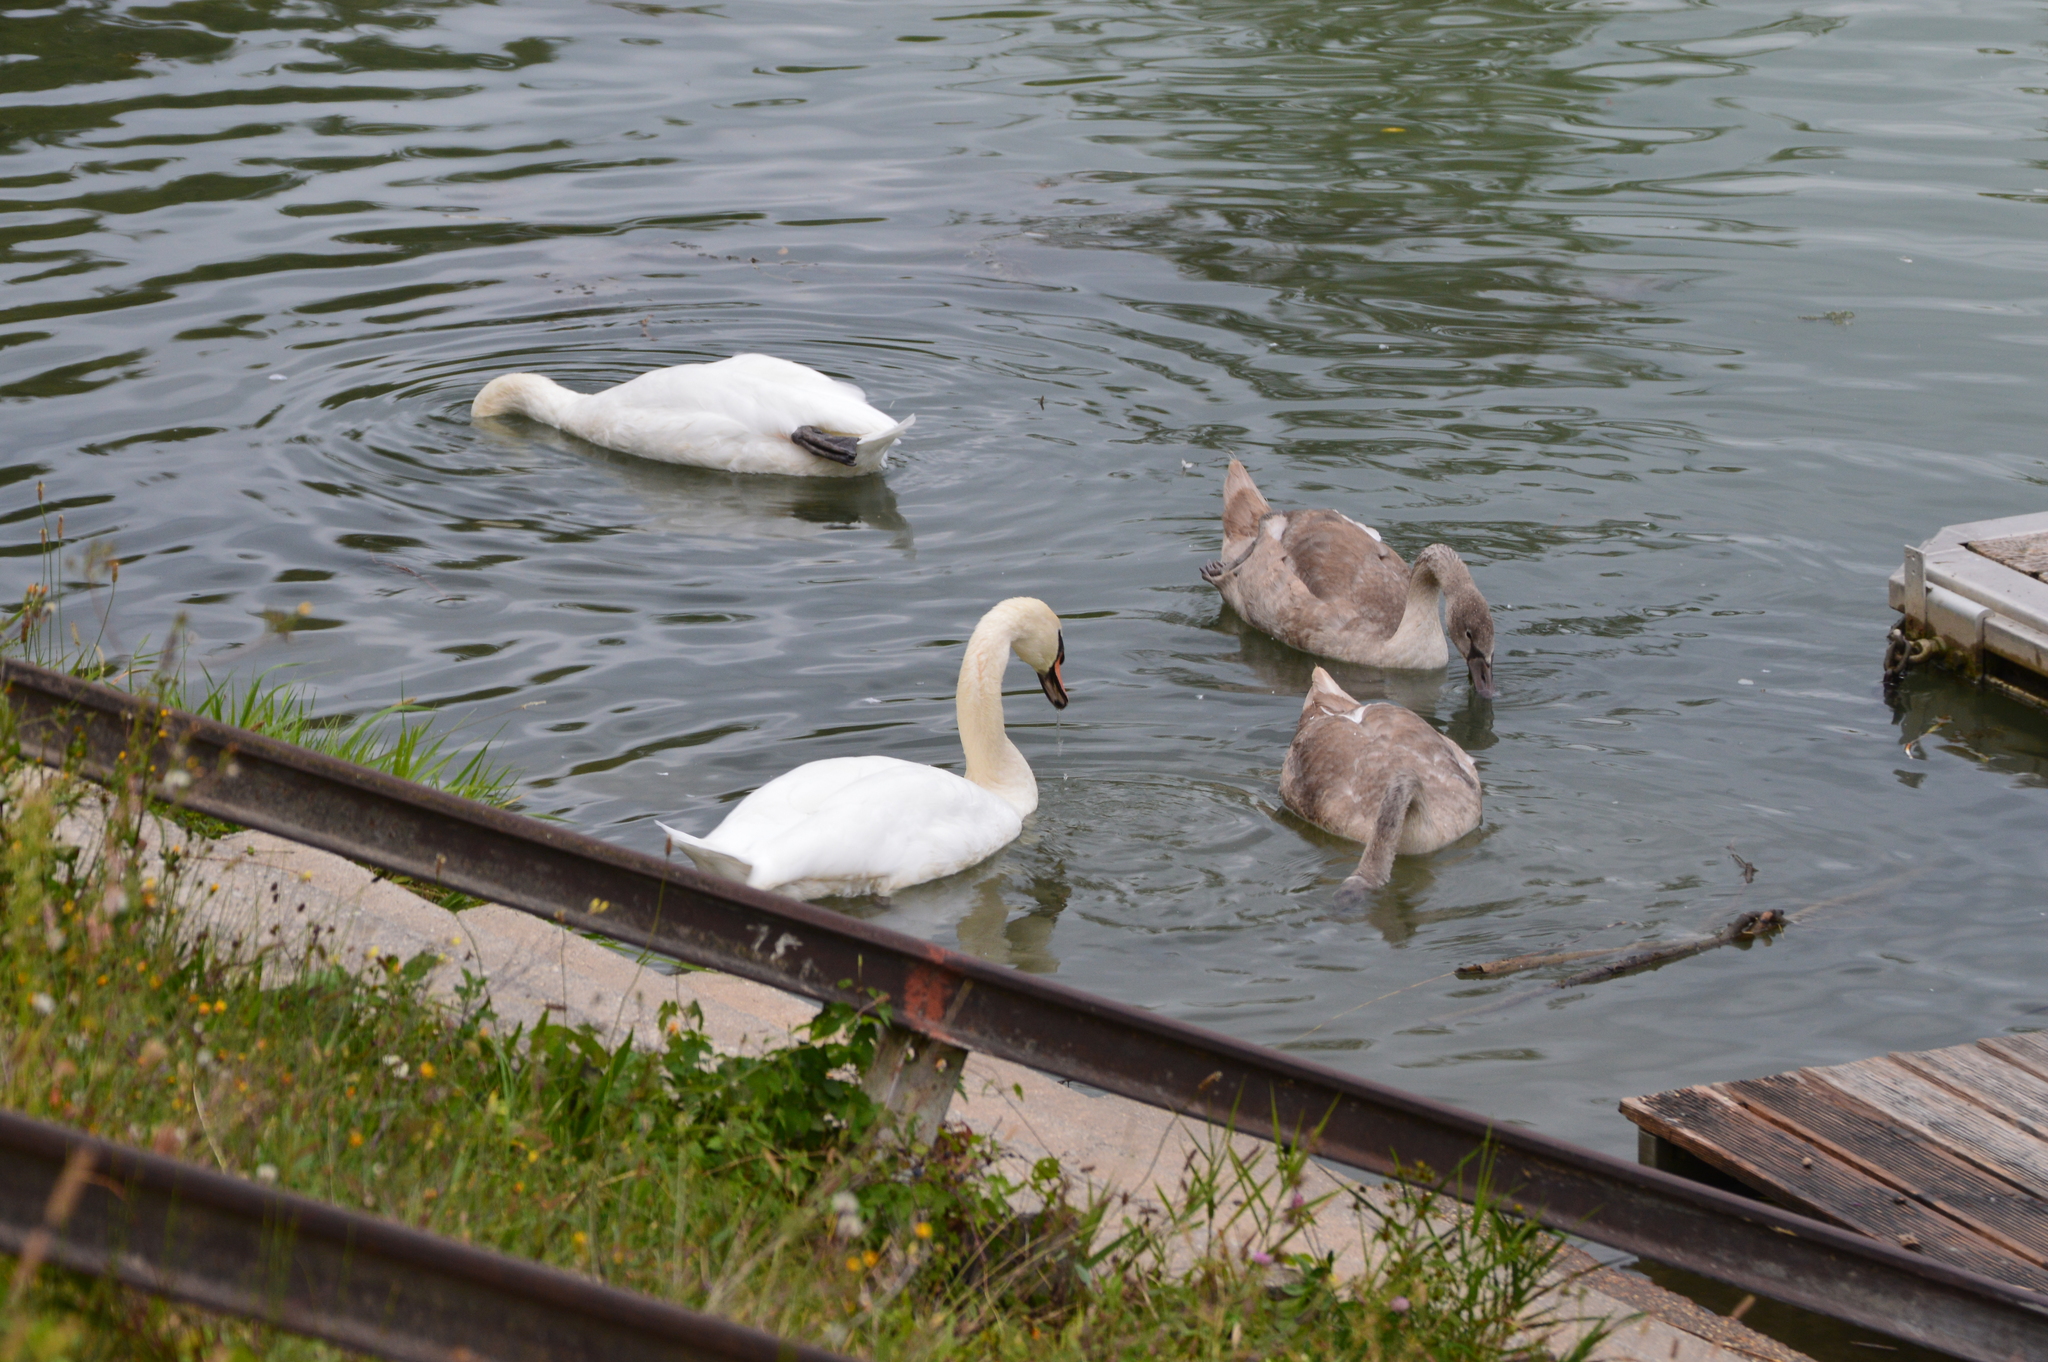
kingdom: Animalia
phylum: Chordata
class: Aves
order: Anseriformes
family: Anatidae
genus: Cygnus
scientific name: Cygnus olor
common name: Mute swan
